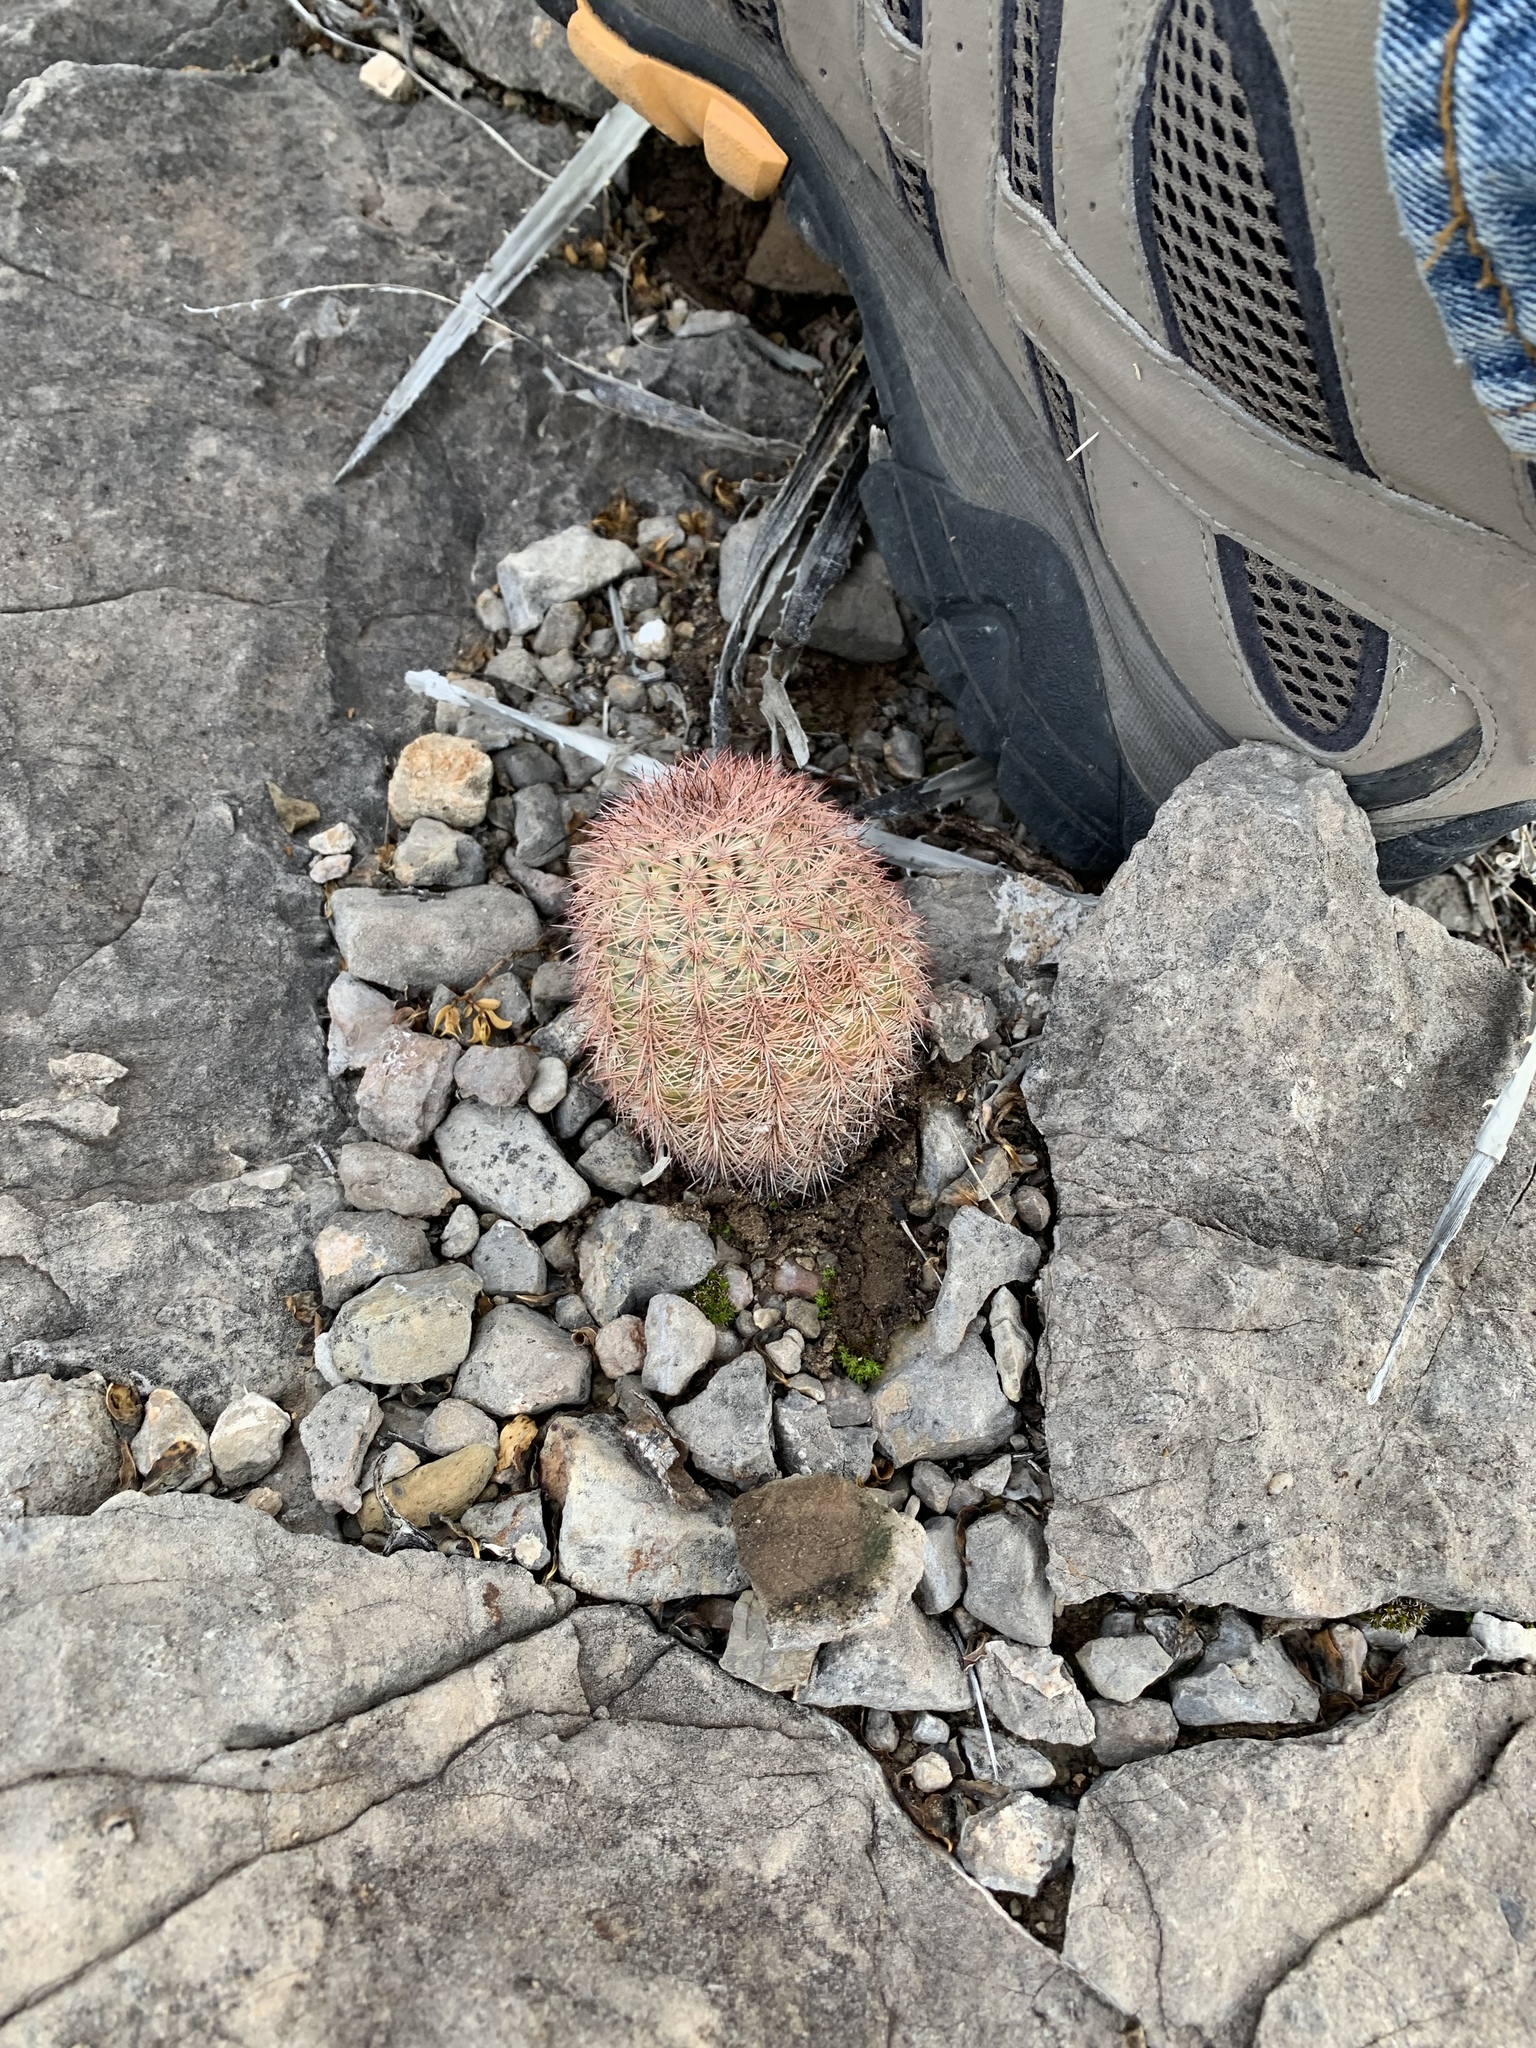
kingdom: Plantae
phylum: Tracheophyta
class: Magnoliopsida
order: Caryophyllales
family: Cactaceae
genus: Echinocereus
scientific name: Echinocereus dasyacanthus
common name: Spiny hedgehog cactus
